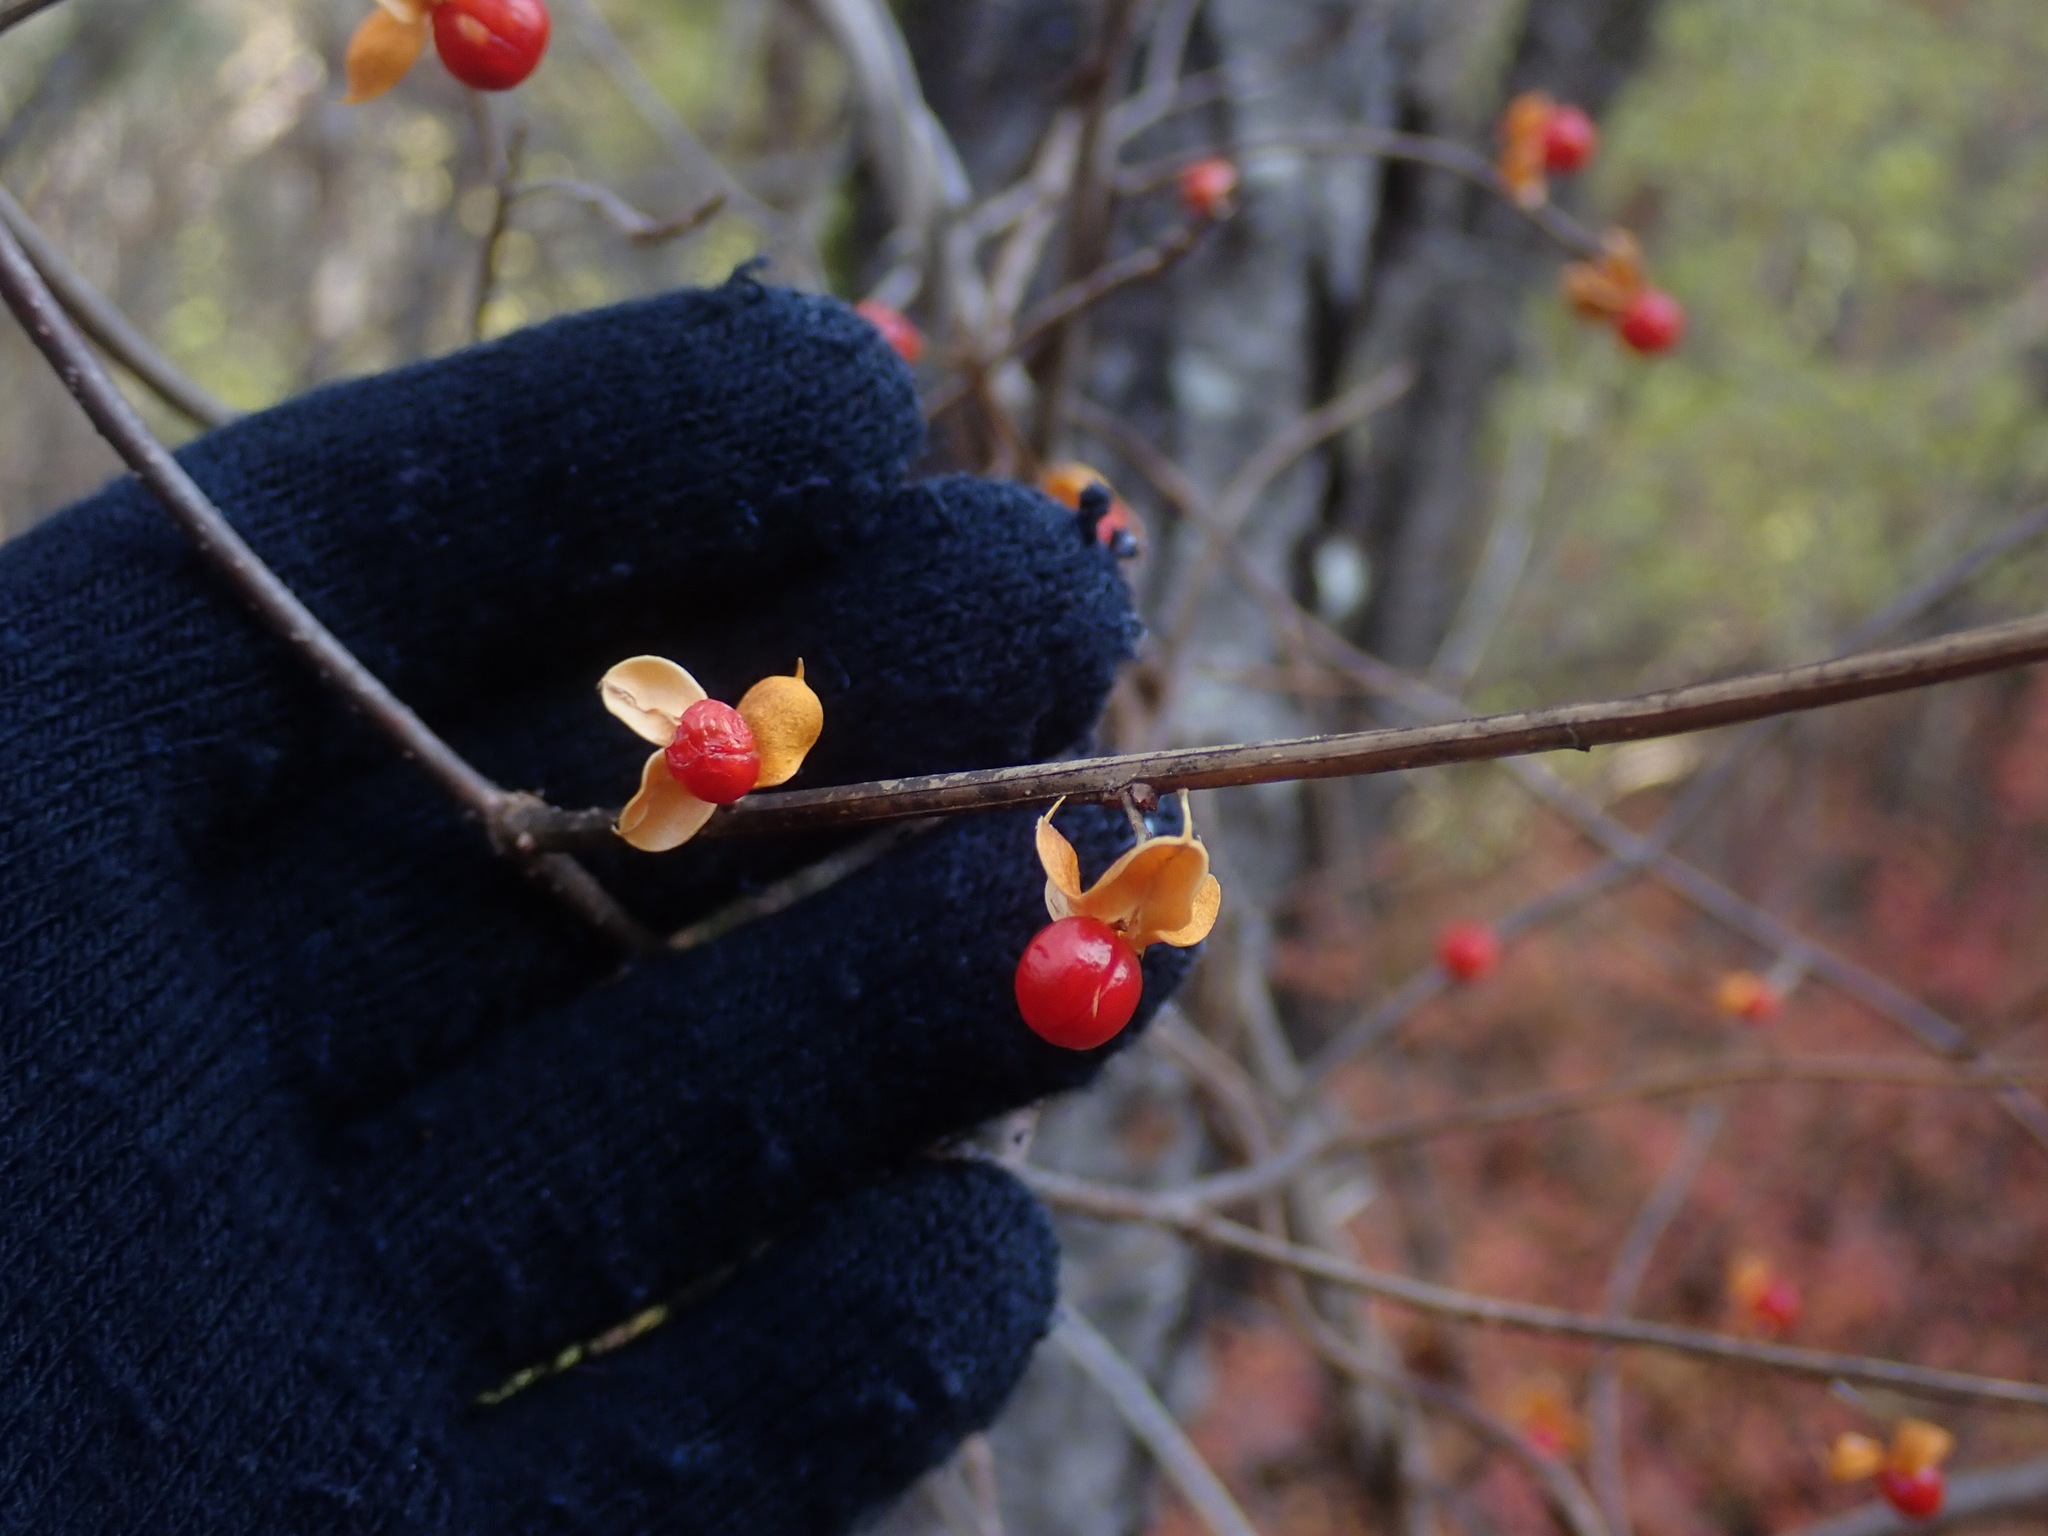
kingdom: Plantae
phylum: Tracheophyta
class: Magnoliopsida
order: Celastrales
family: Celastraceae
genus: Celastrus
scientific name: Celastrus orbiculatus
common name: Oriental bittersweet
